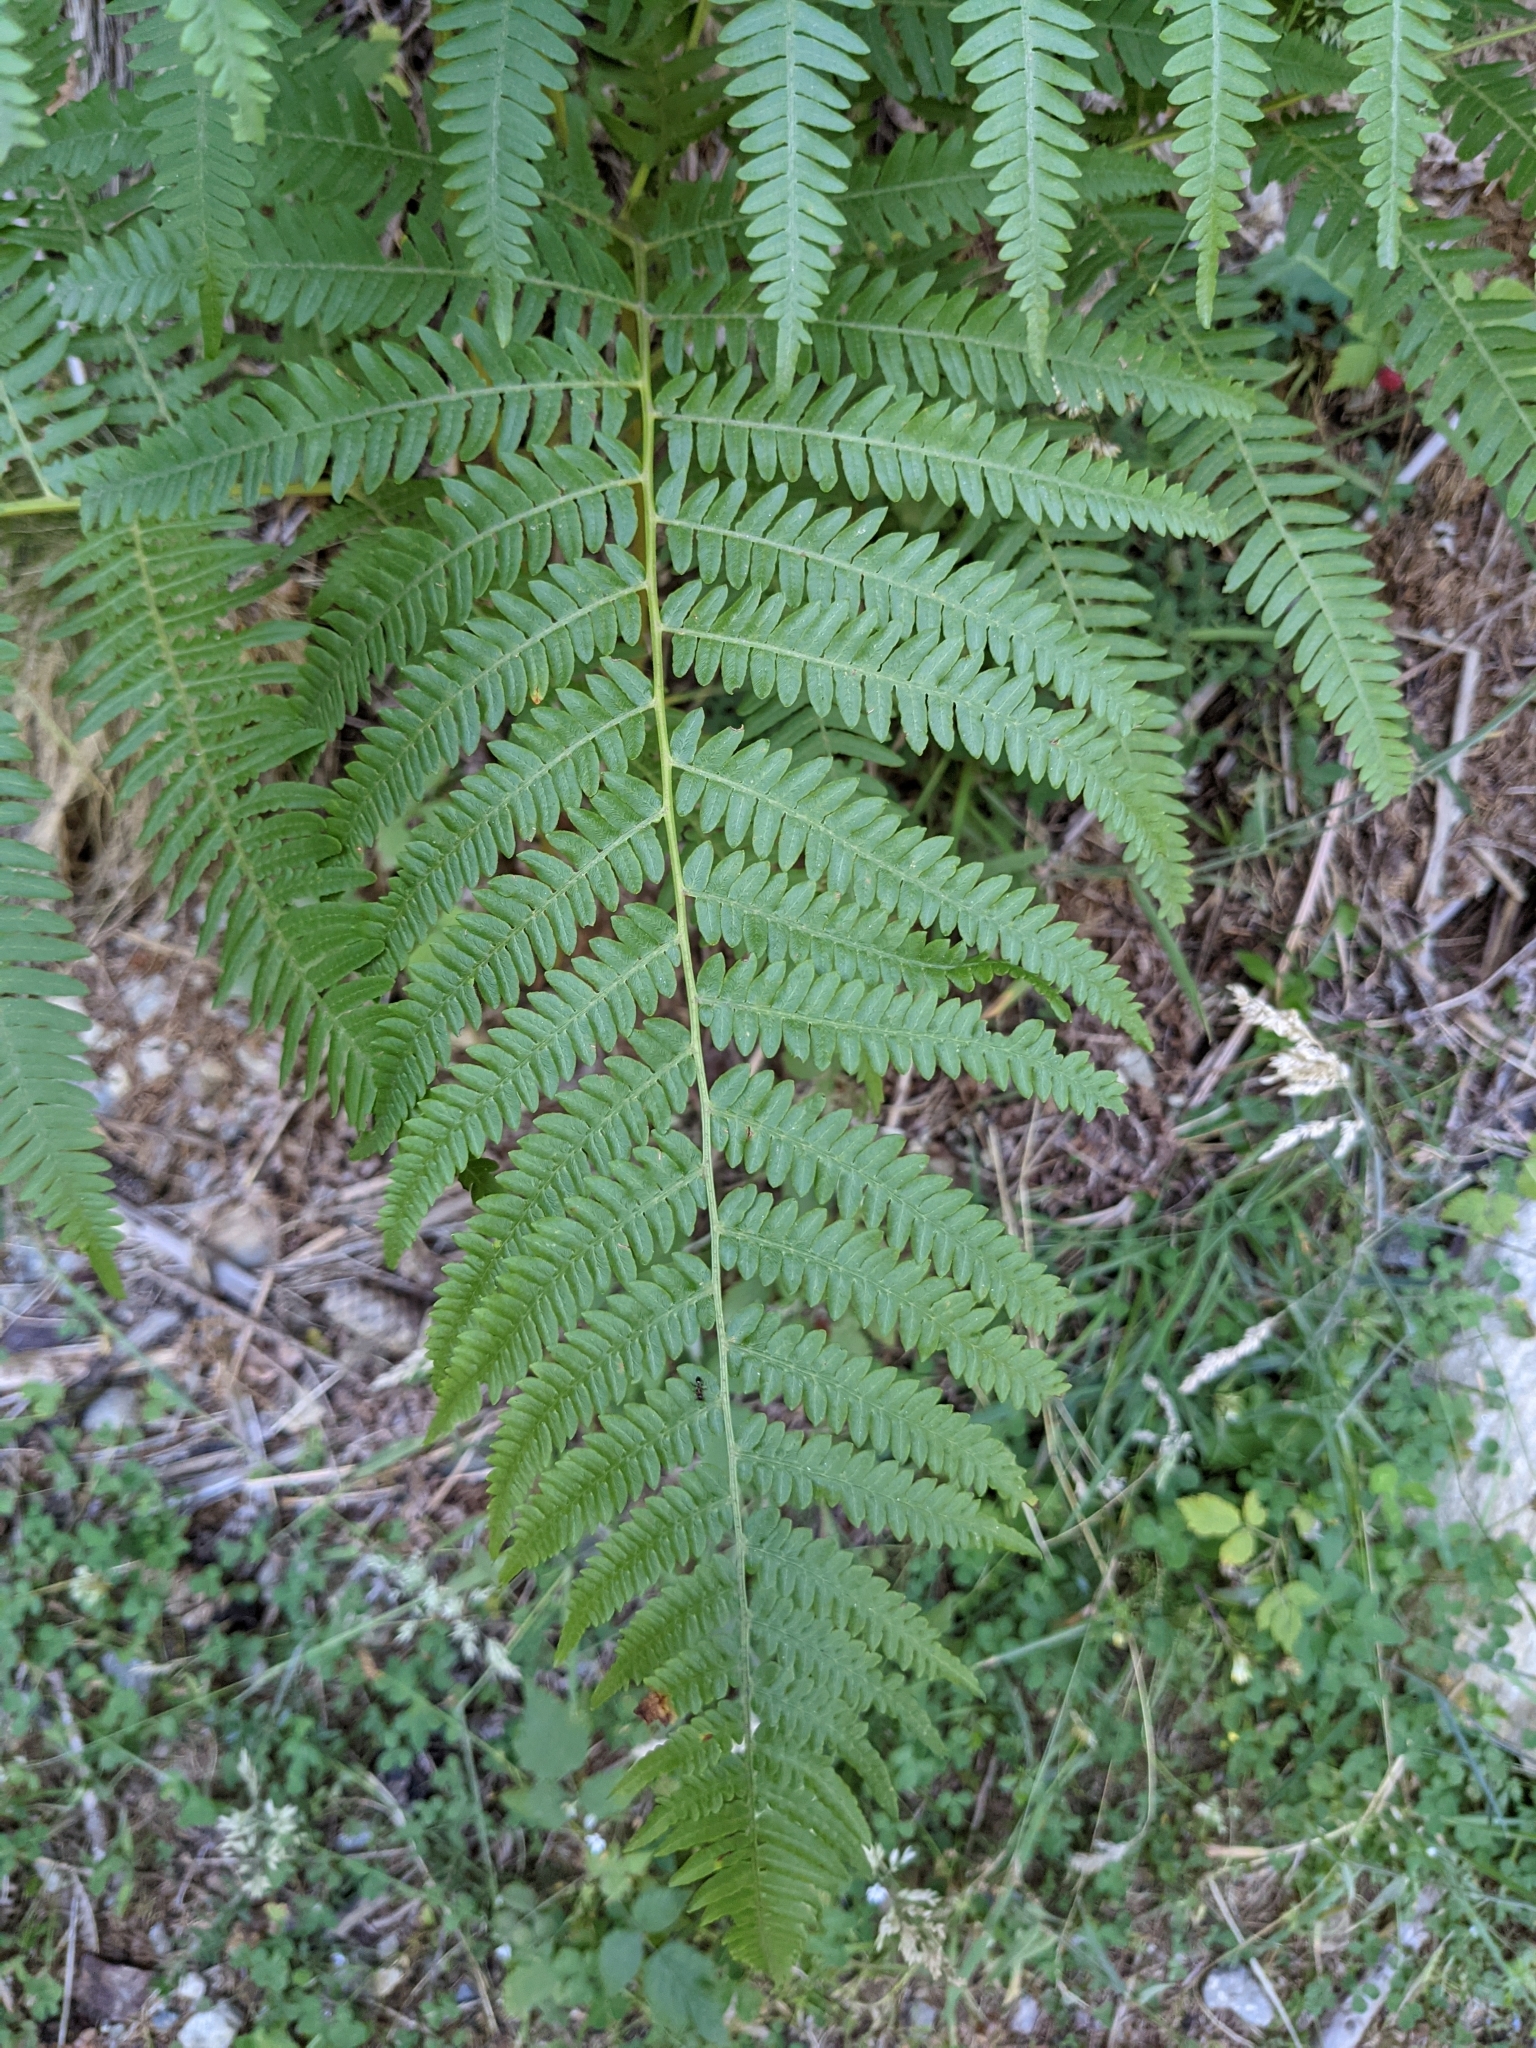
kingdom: Plantae
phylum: Tracheophyta
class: Polypodiopsida
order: Polypodiales
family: Dennstaedtiaceae
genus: Pteridium
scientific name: Pteridium aquilinum
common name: Bracken
